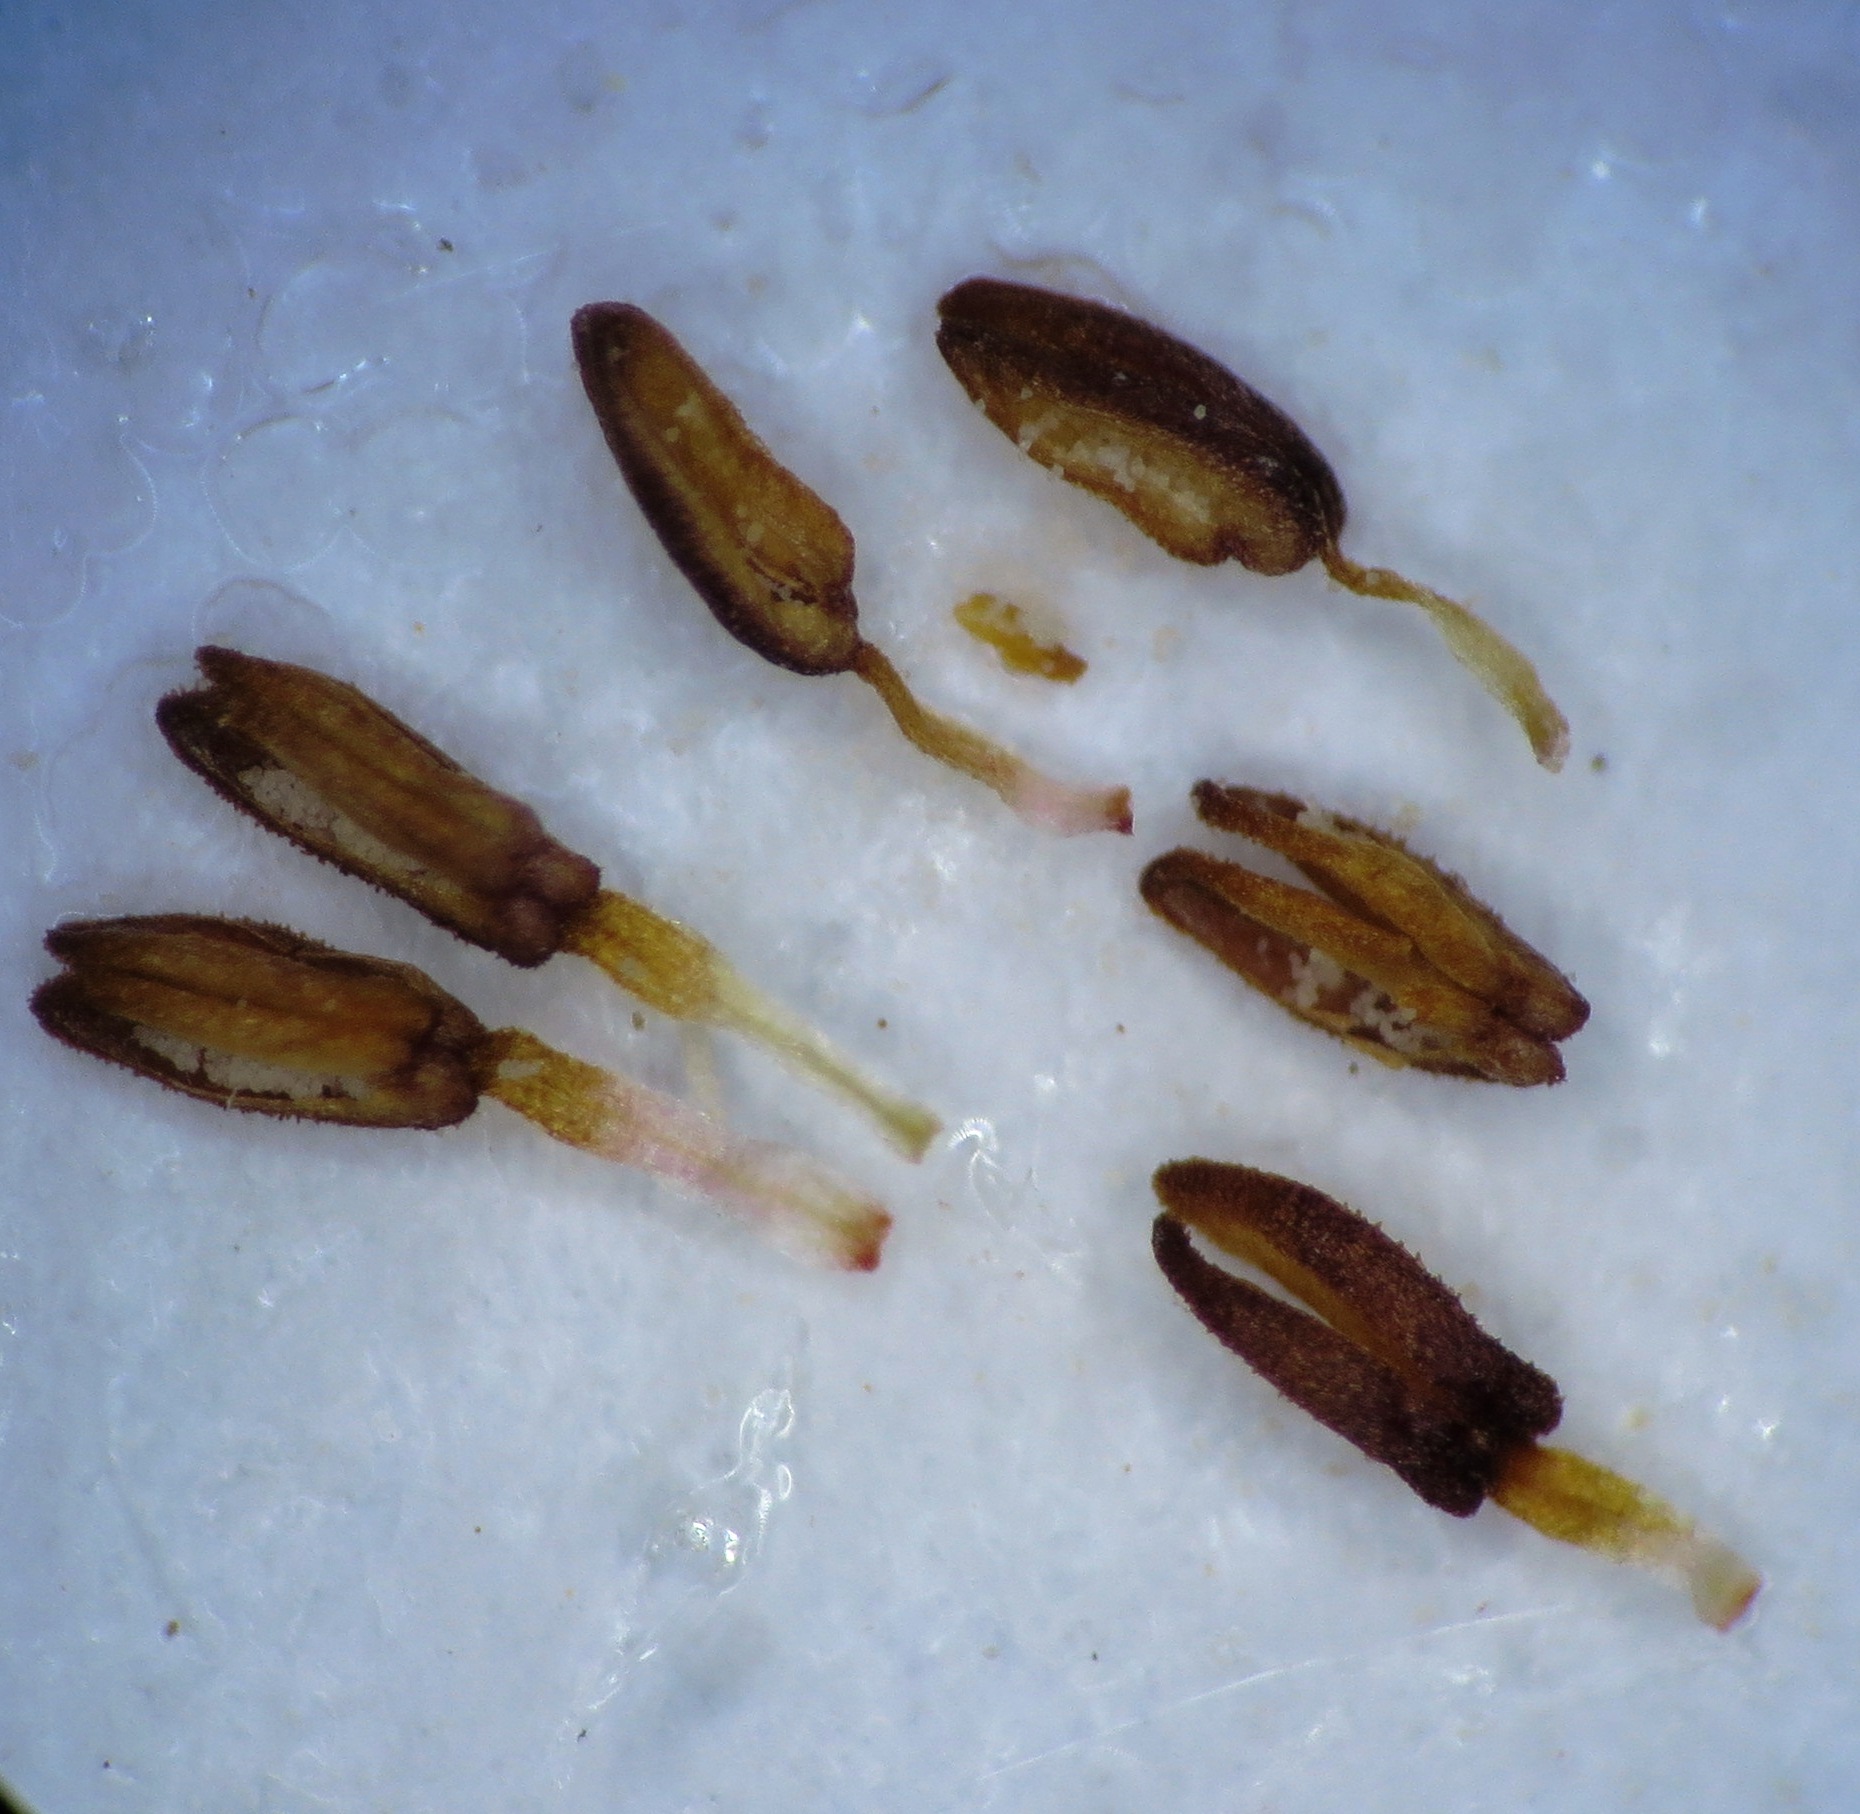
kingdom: Plantae
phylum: Tracheophyta
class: Magnoliopsida
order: Ericales
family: Ericaceae
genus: Erica
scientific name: Erica lasciva
